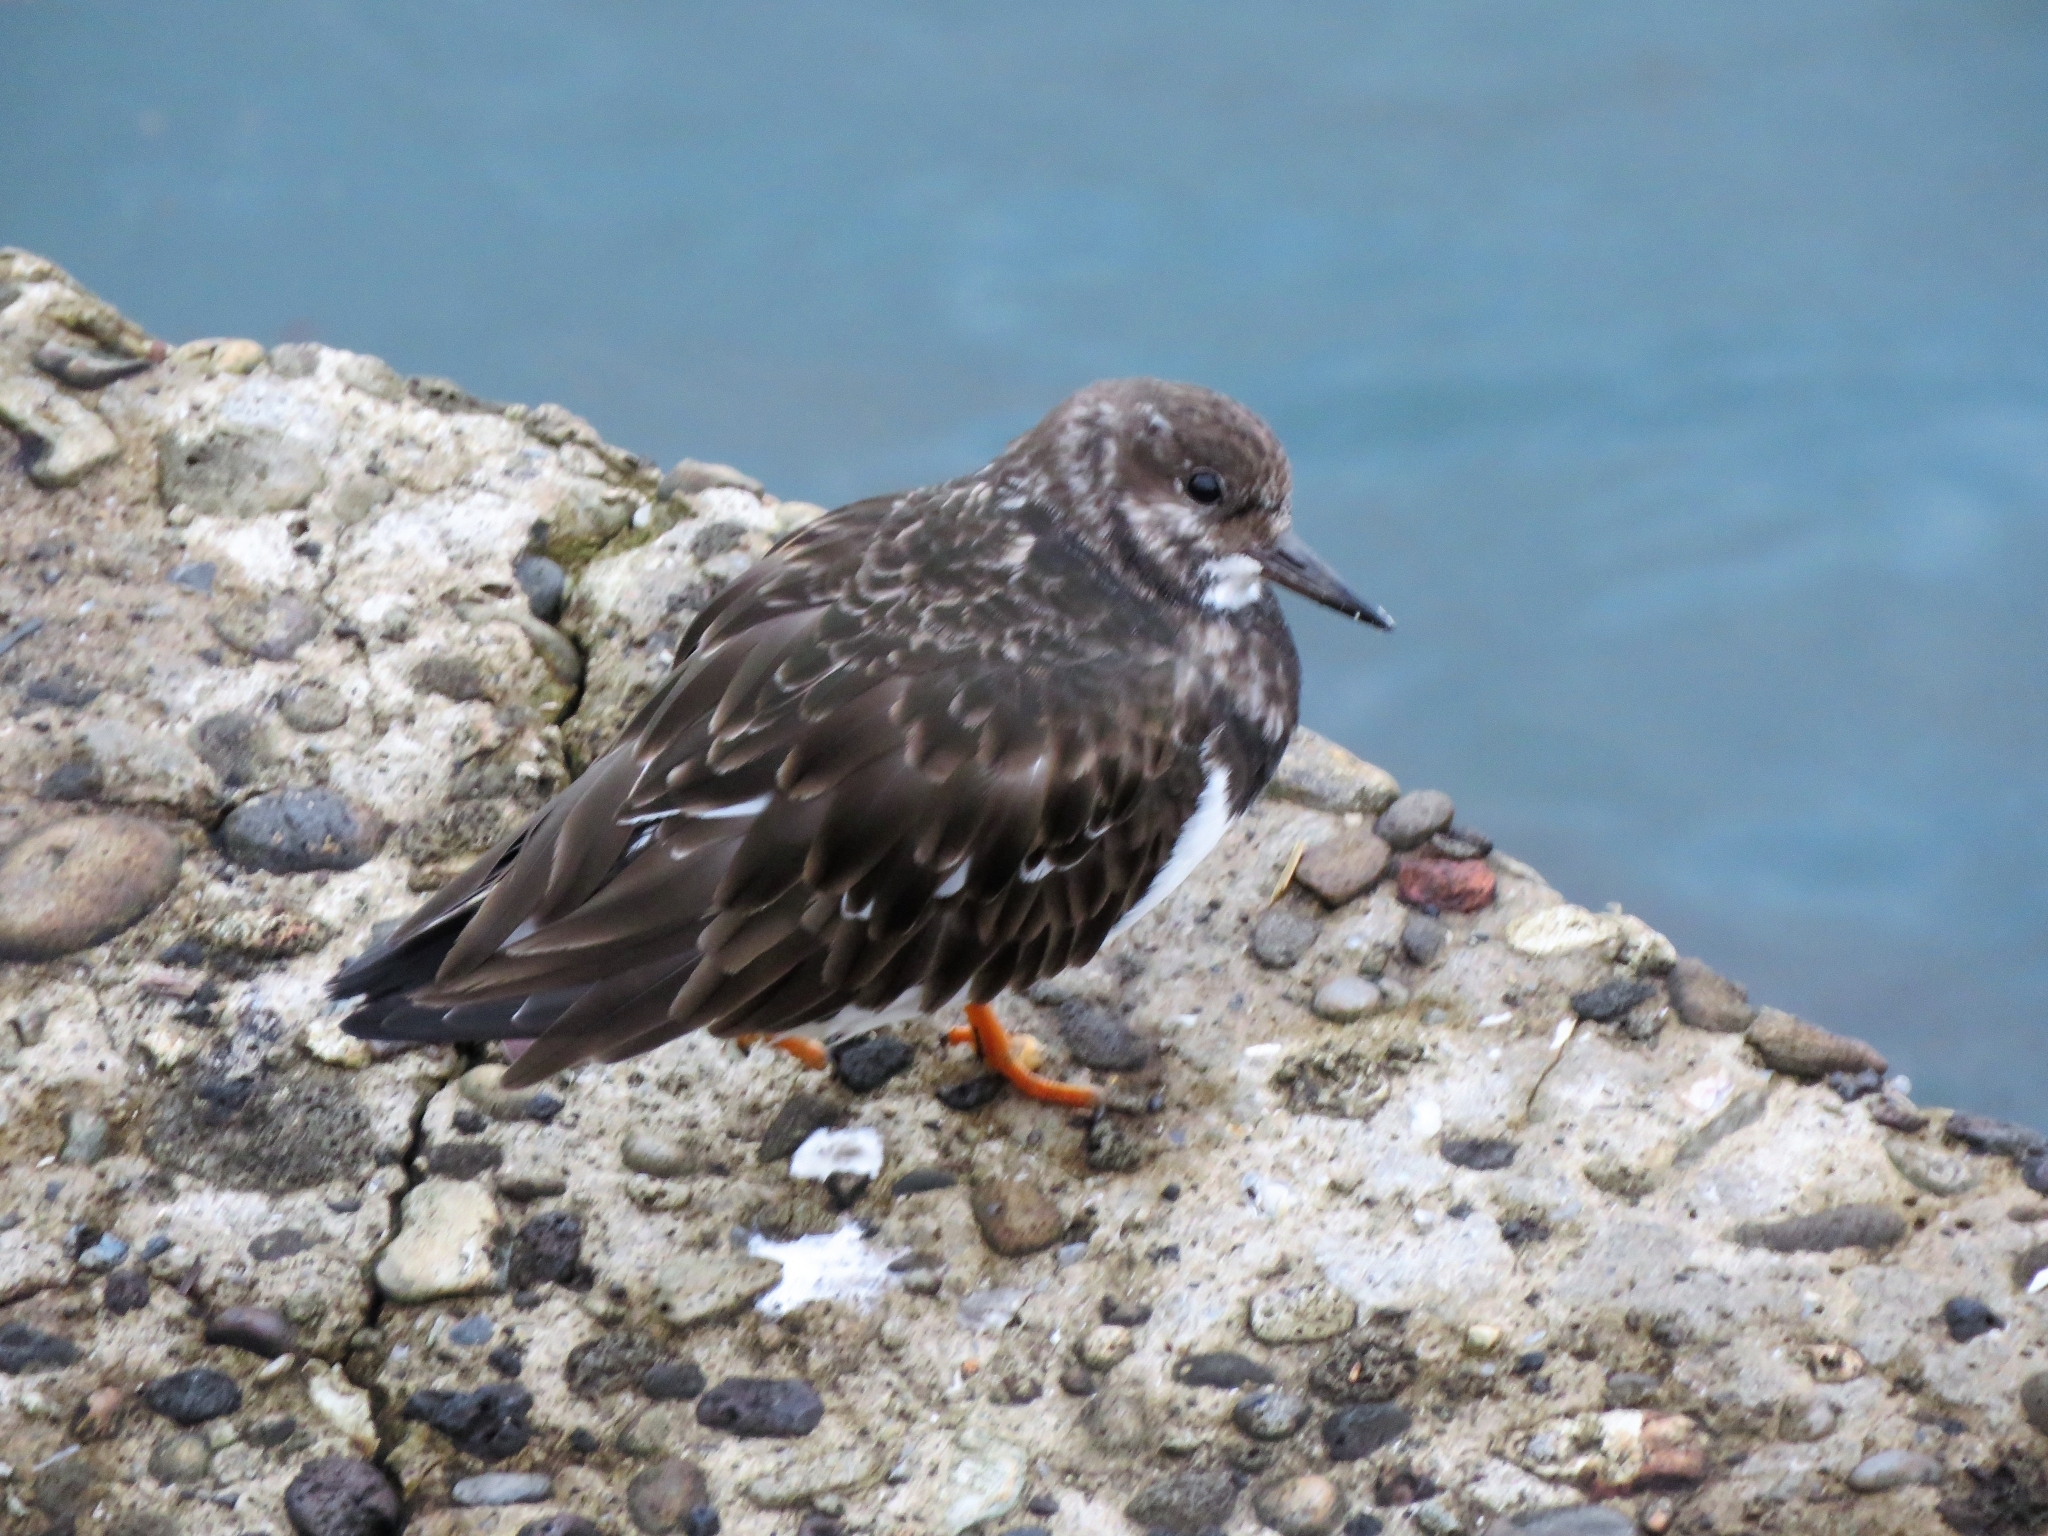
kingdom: Animalia
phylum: Chordata
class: Aves
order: Charadriiformes
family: Scolopacidae
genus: Arenaria
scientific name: Arenaria interpres
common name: Ruddy turnstone
